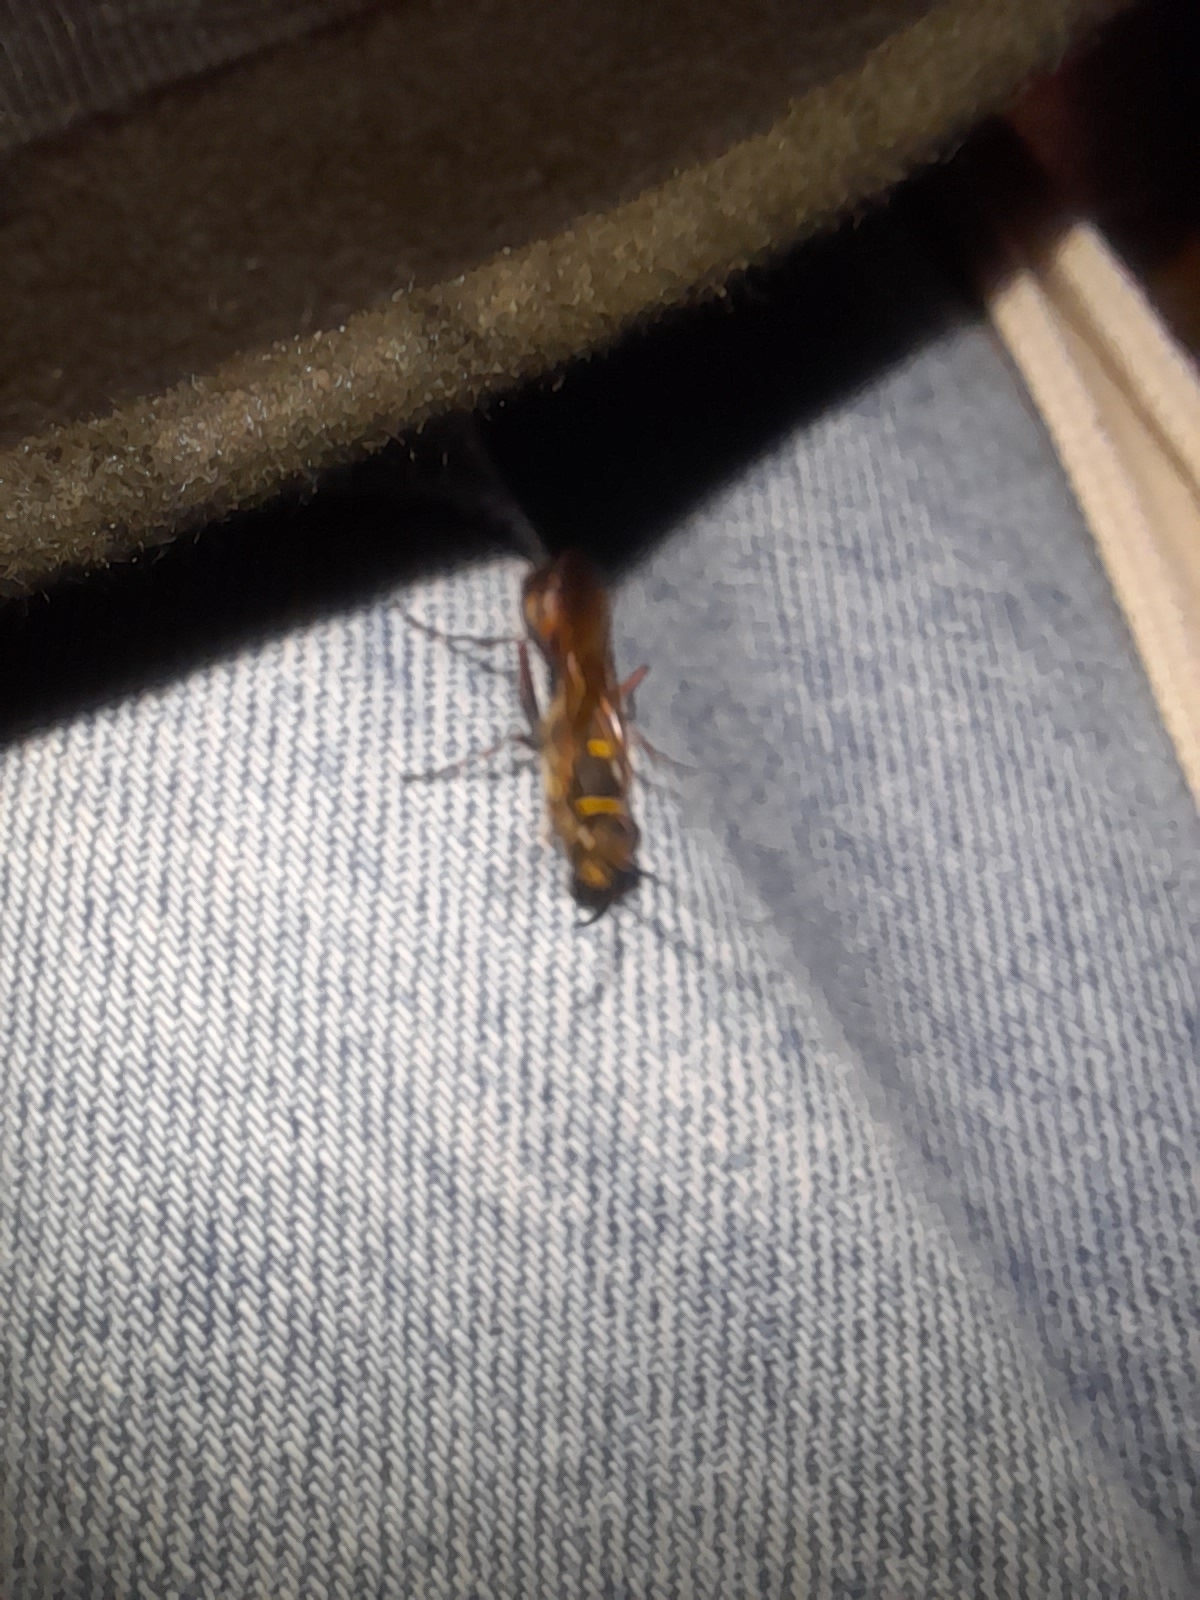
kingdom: Animalia
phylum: Arthropoda
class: Insecta
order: Hymenoptera
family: Sphecidae
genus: Sceliphron
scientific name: Sceliphron curvatum
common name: Pèlopèe
